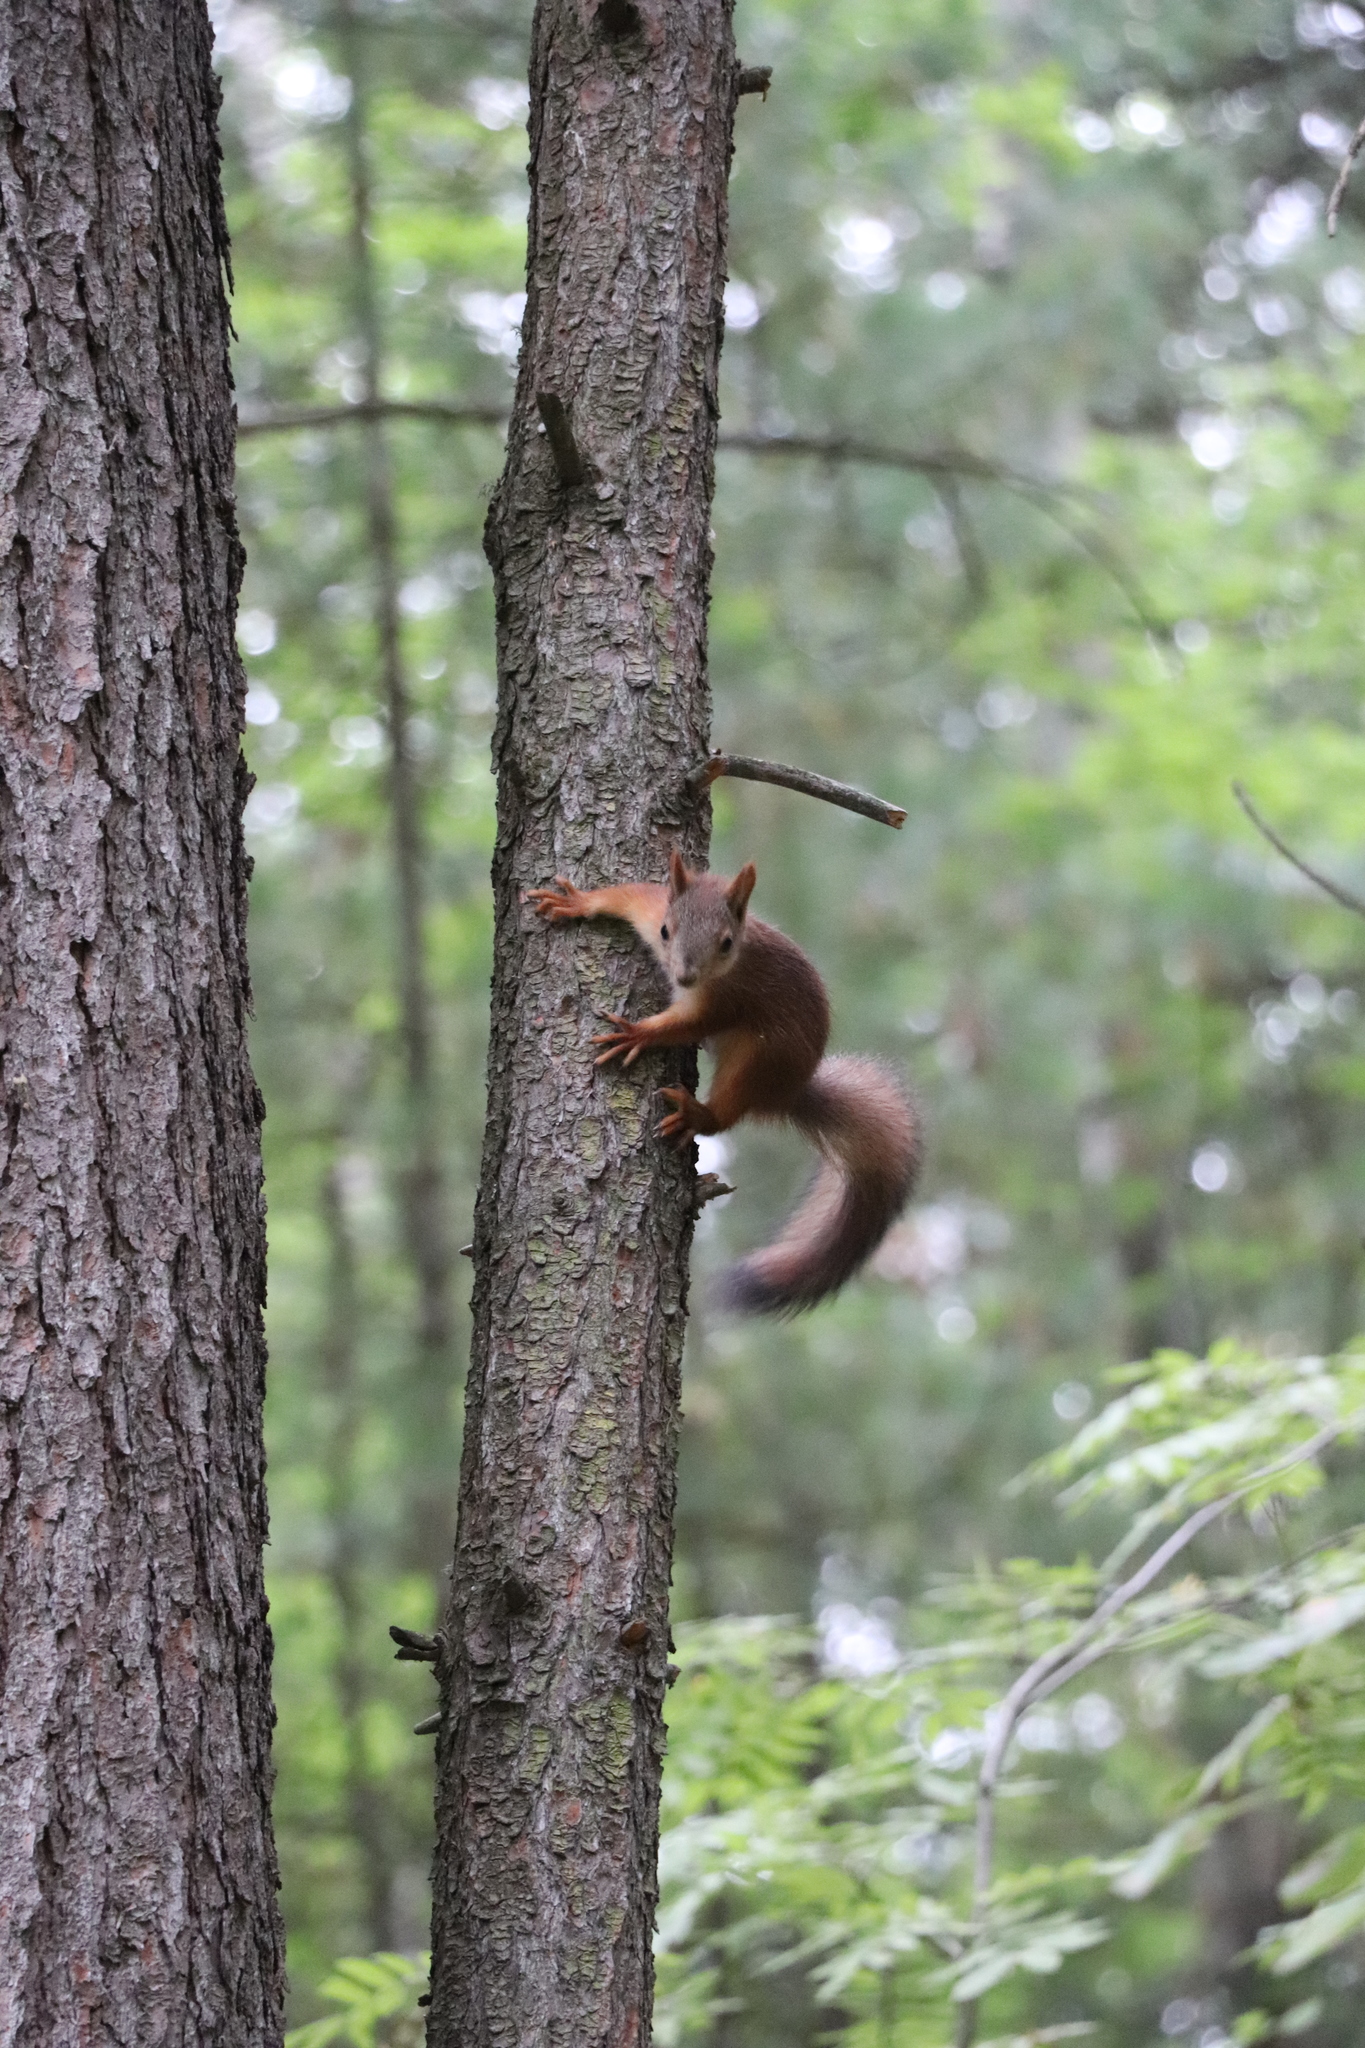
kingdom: Animalia
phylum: Chordata
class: Mammalia
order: Rodentia
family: Sciuridae
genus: Sciurus
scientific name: Sciurus vulgaris
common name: Eurasian red squirrel
